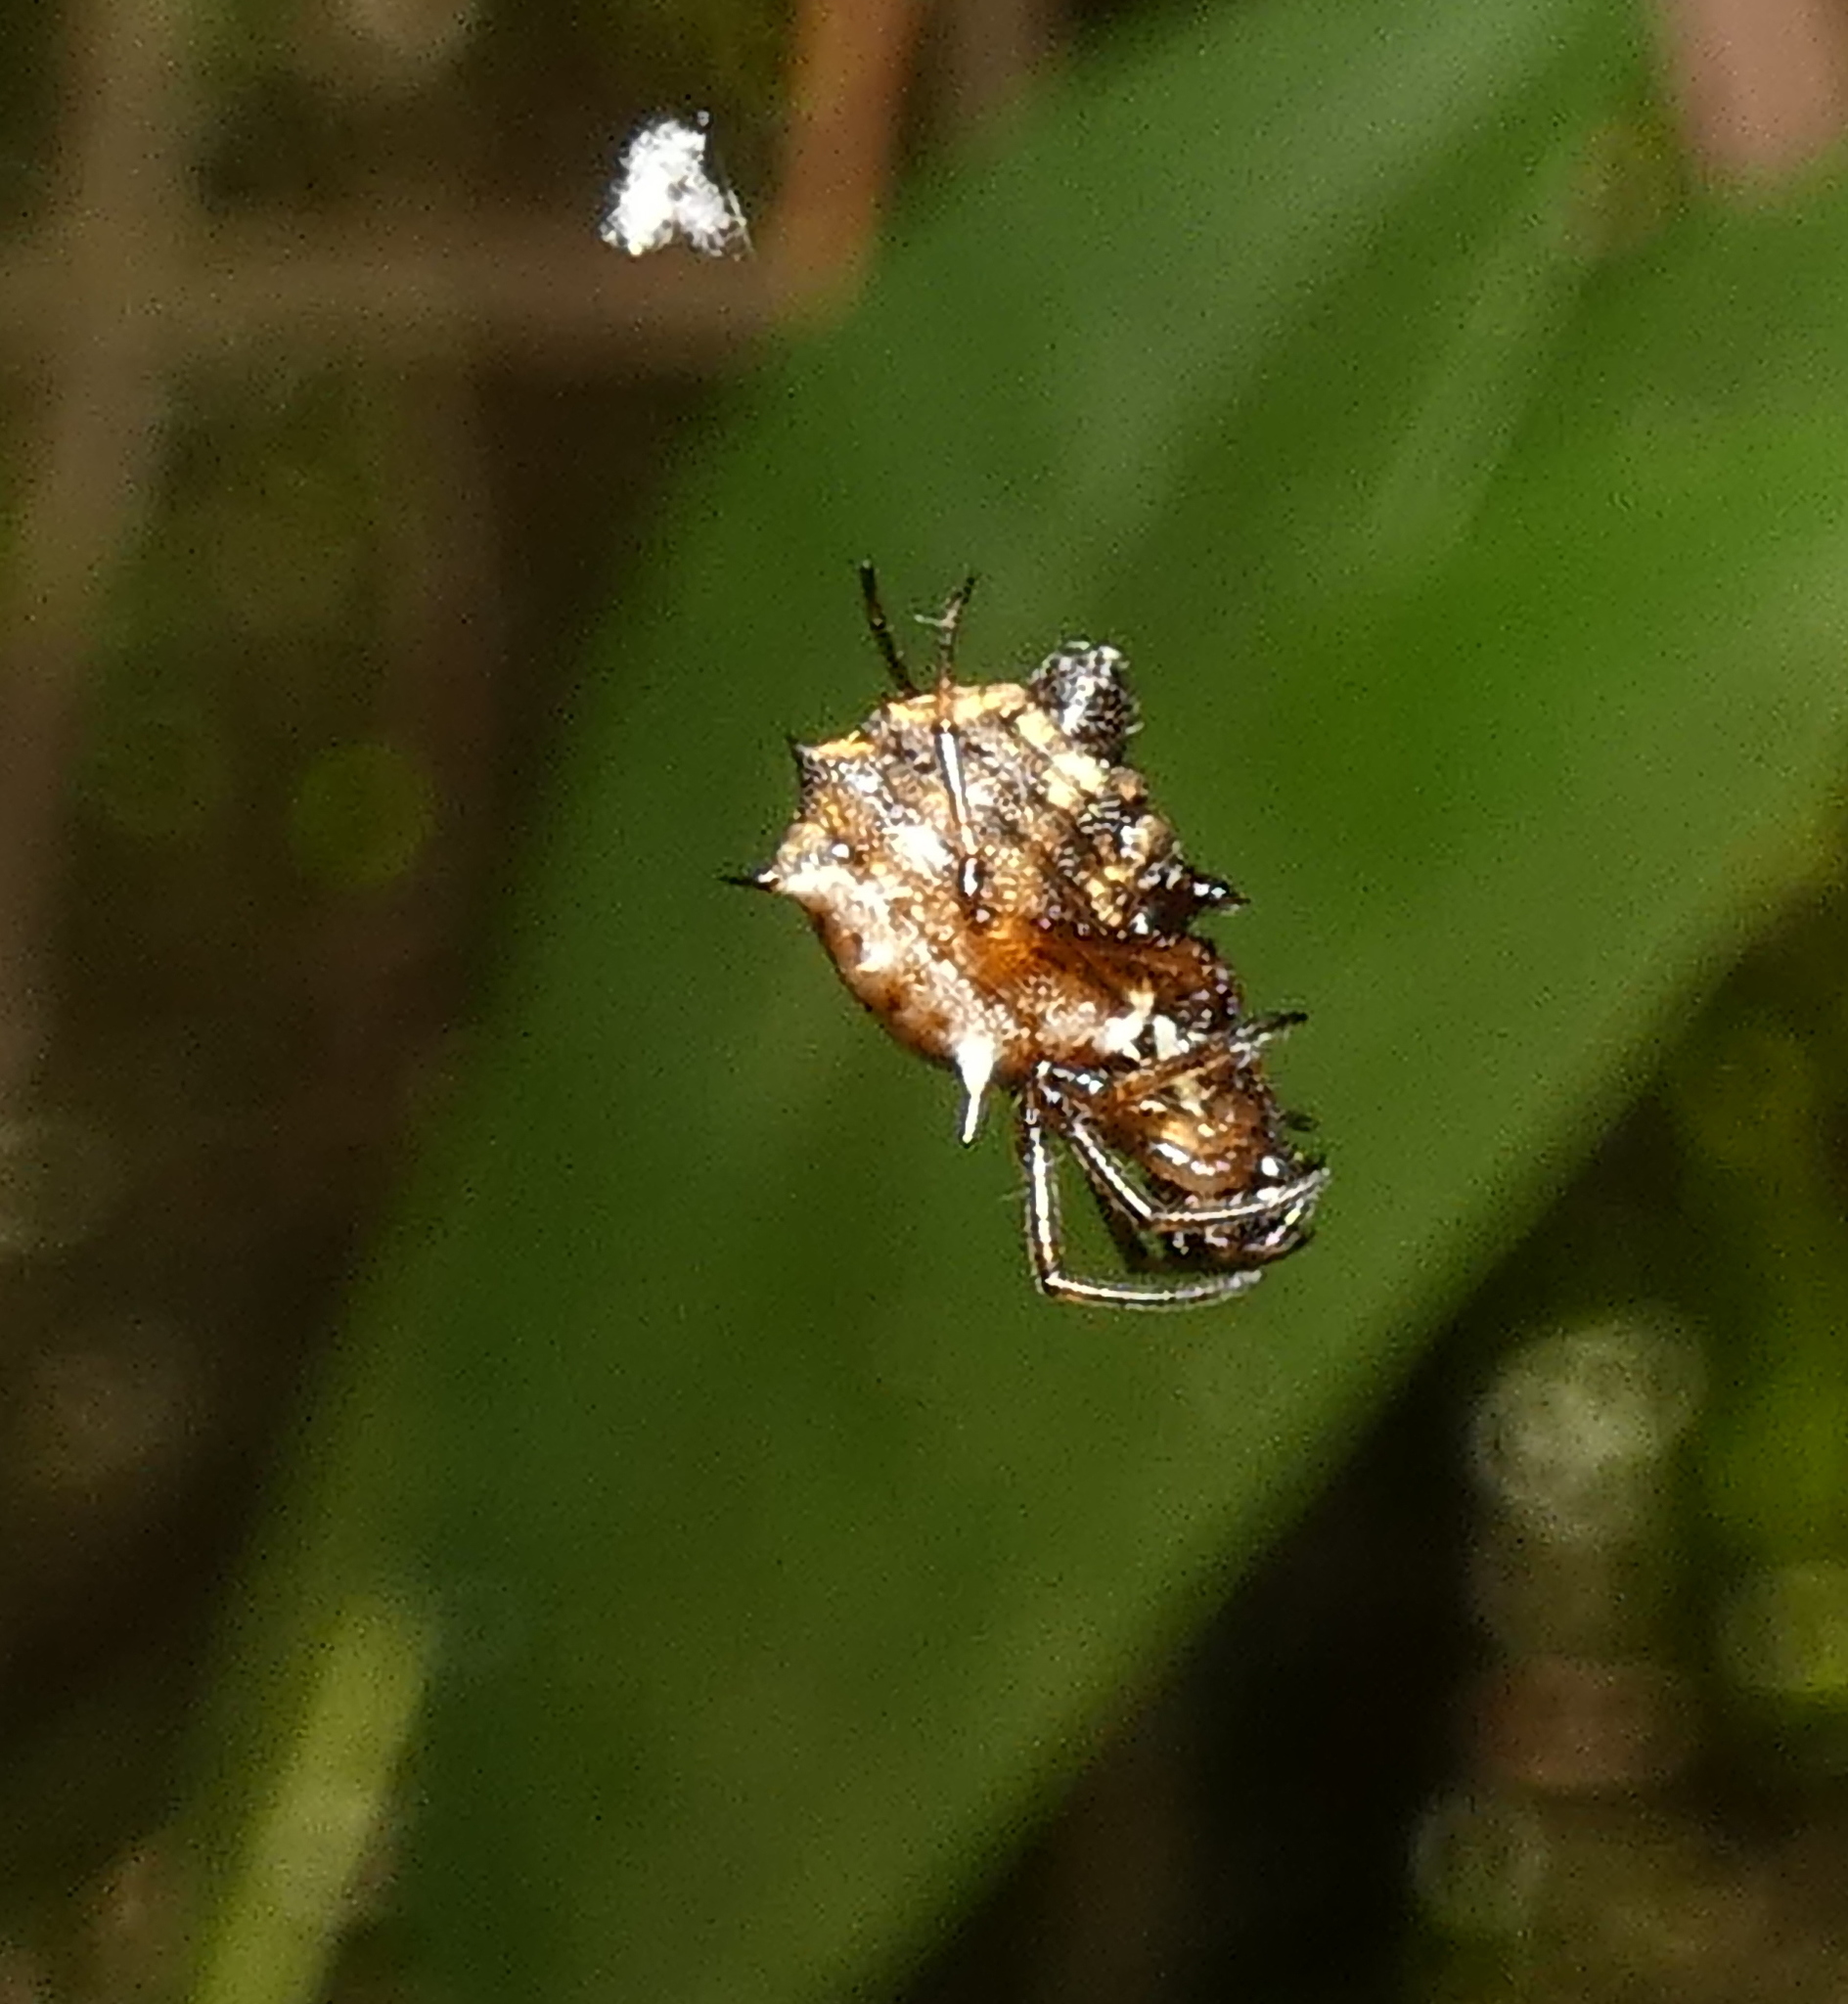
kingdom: Animalia
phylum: Arthropoda
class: Arachnida
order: Araneae
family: Araneidae
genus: Micrathena
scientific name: Micrathena picta
